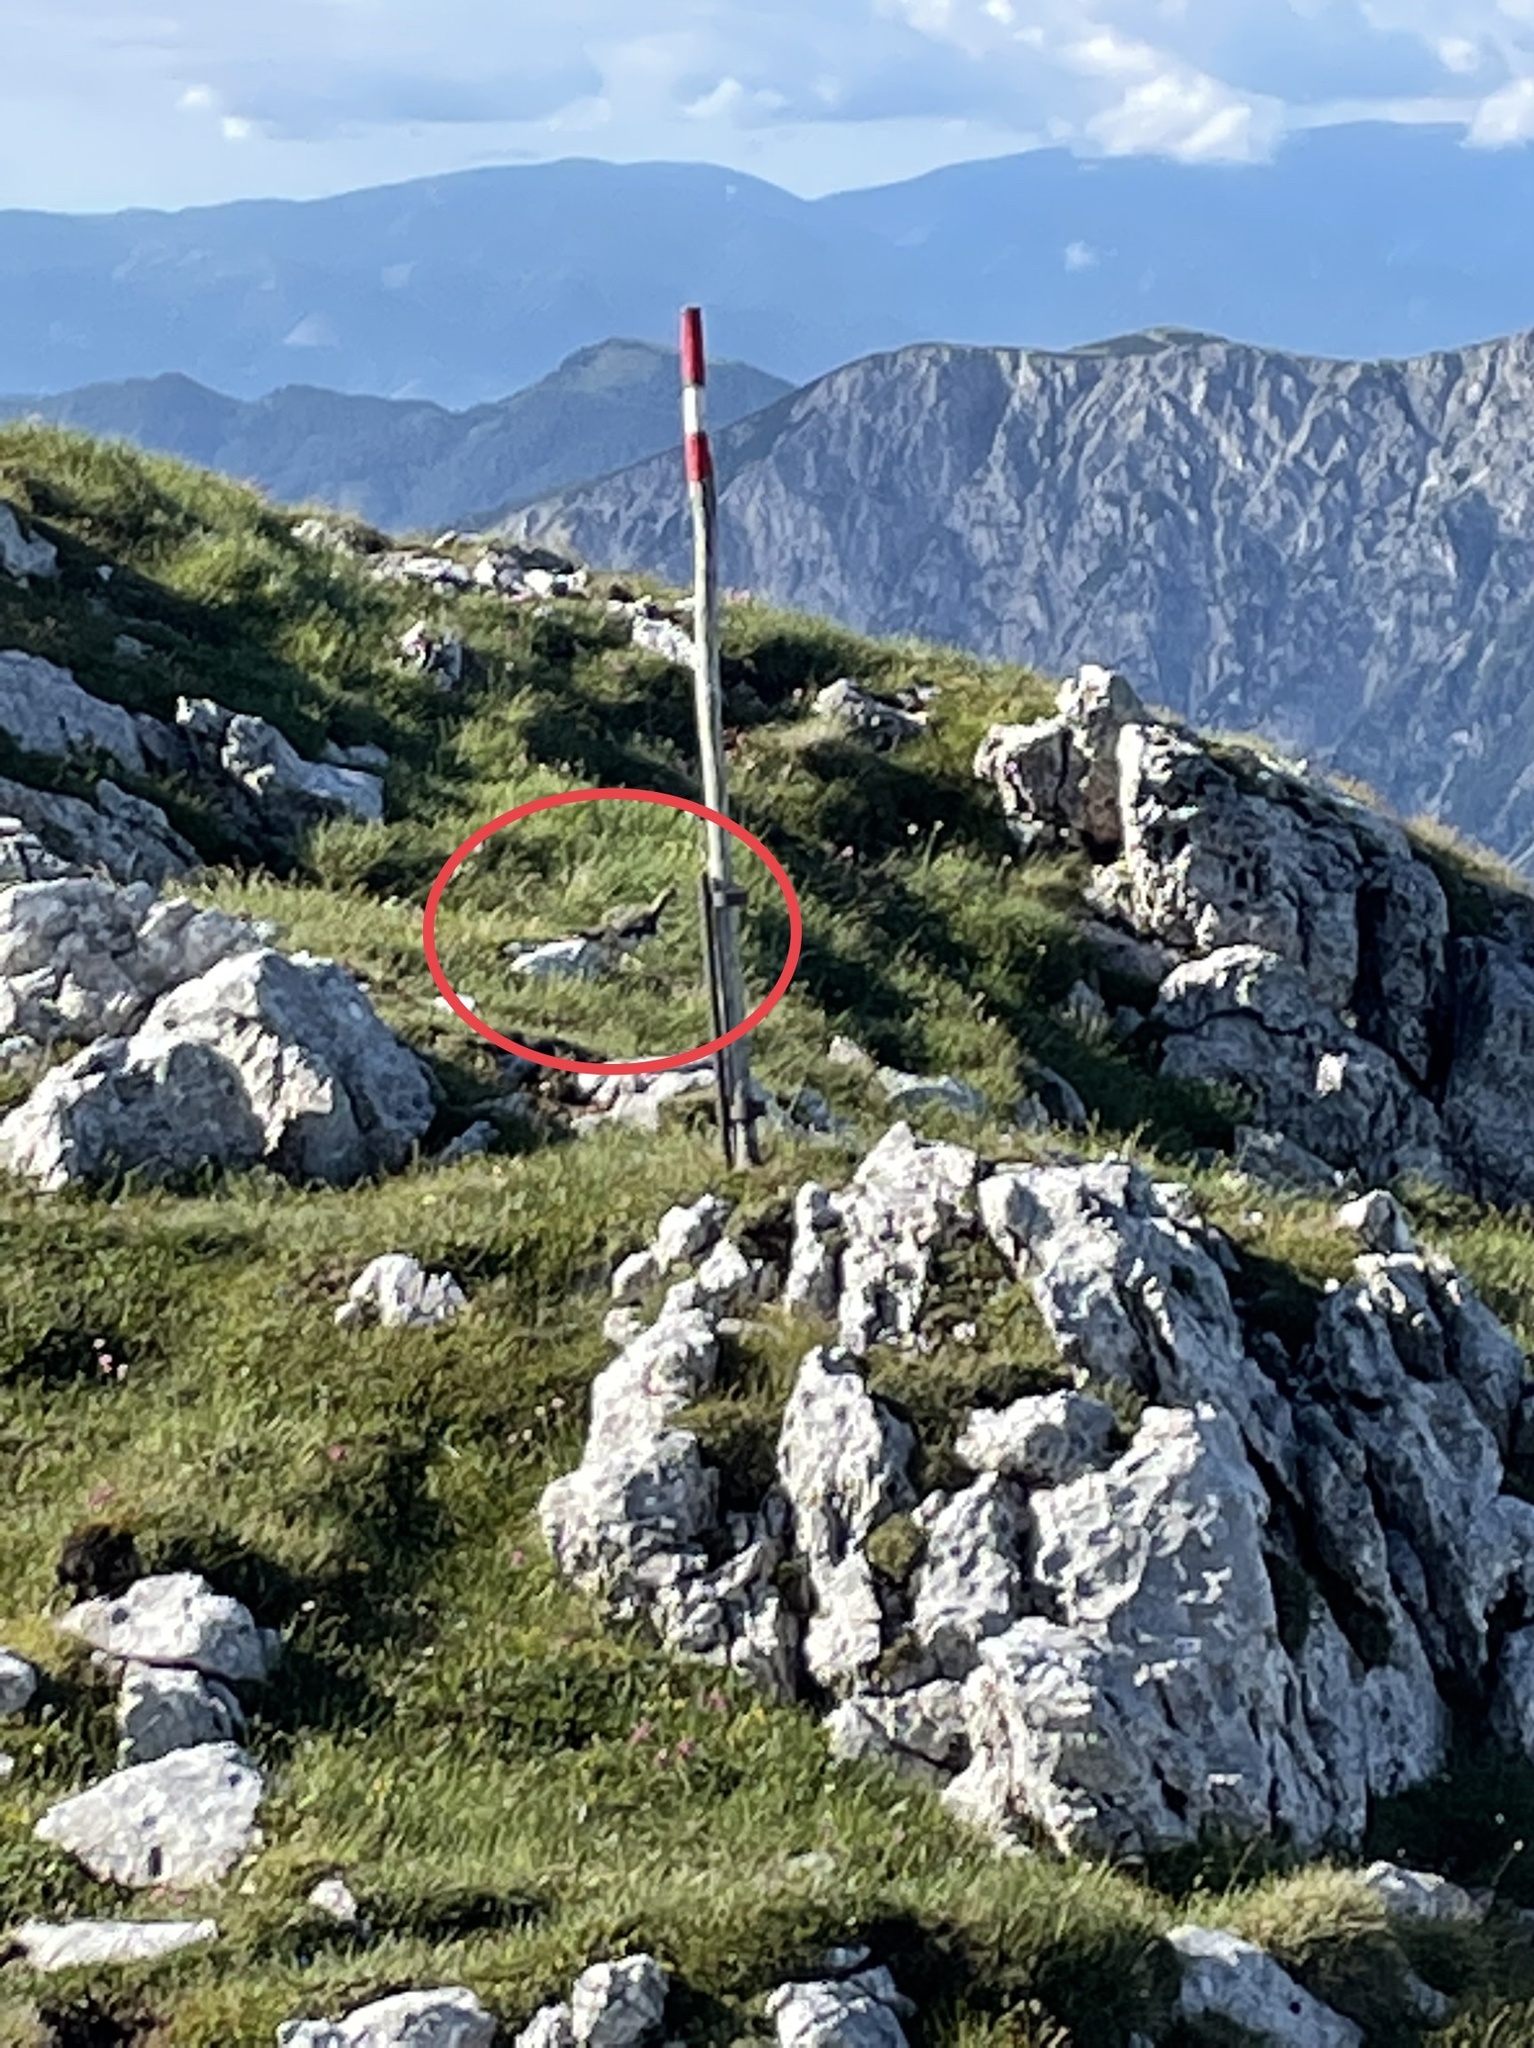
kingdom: Animalia
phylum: Chordata
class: Aves
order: Galliformes
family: Phasianidae
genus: Lagopus
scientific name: Lagopus muta
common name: Rock ptarmigan
